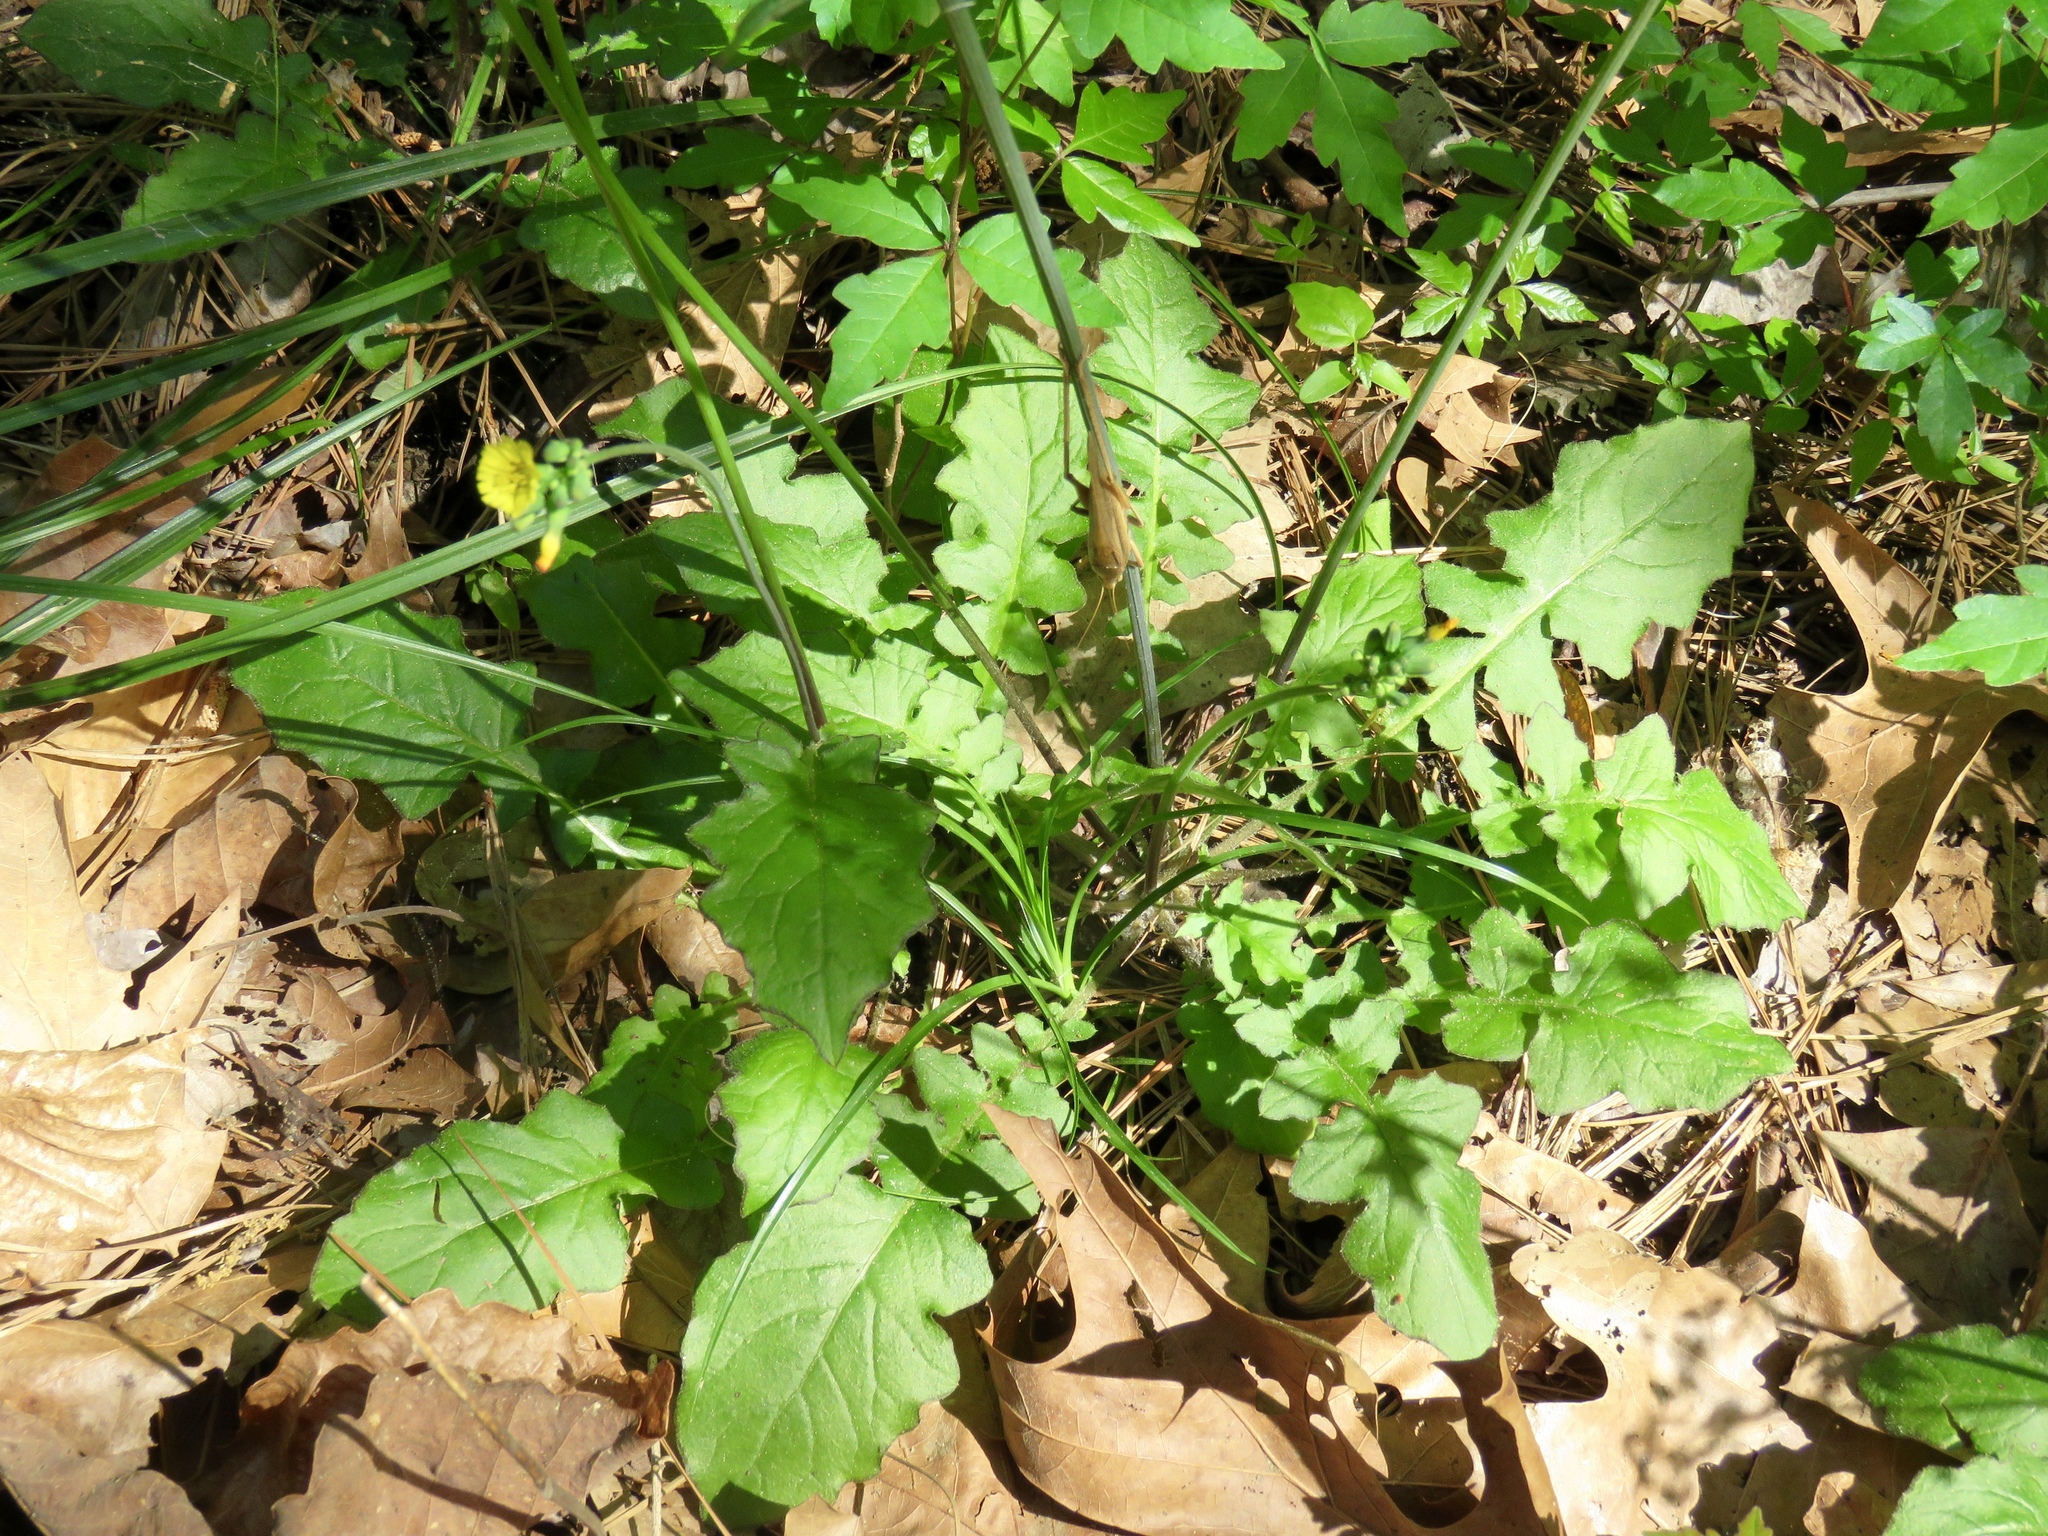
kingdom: Plantae
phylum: Tracheophyta
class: Magnoliopsida
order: Asterales
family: Asteraceae
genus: Youngia
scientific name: Youngia japonica
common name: Oriental false hawksbeard
